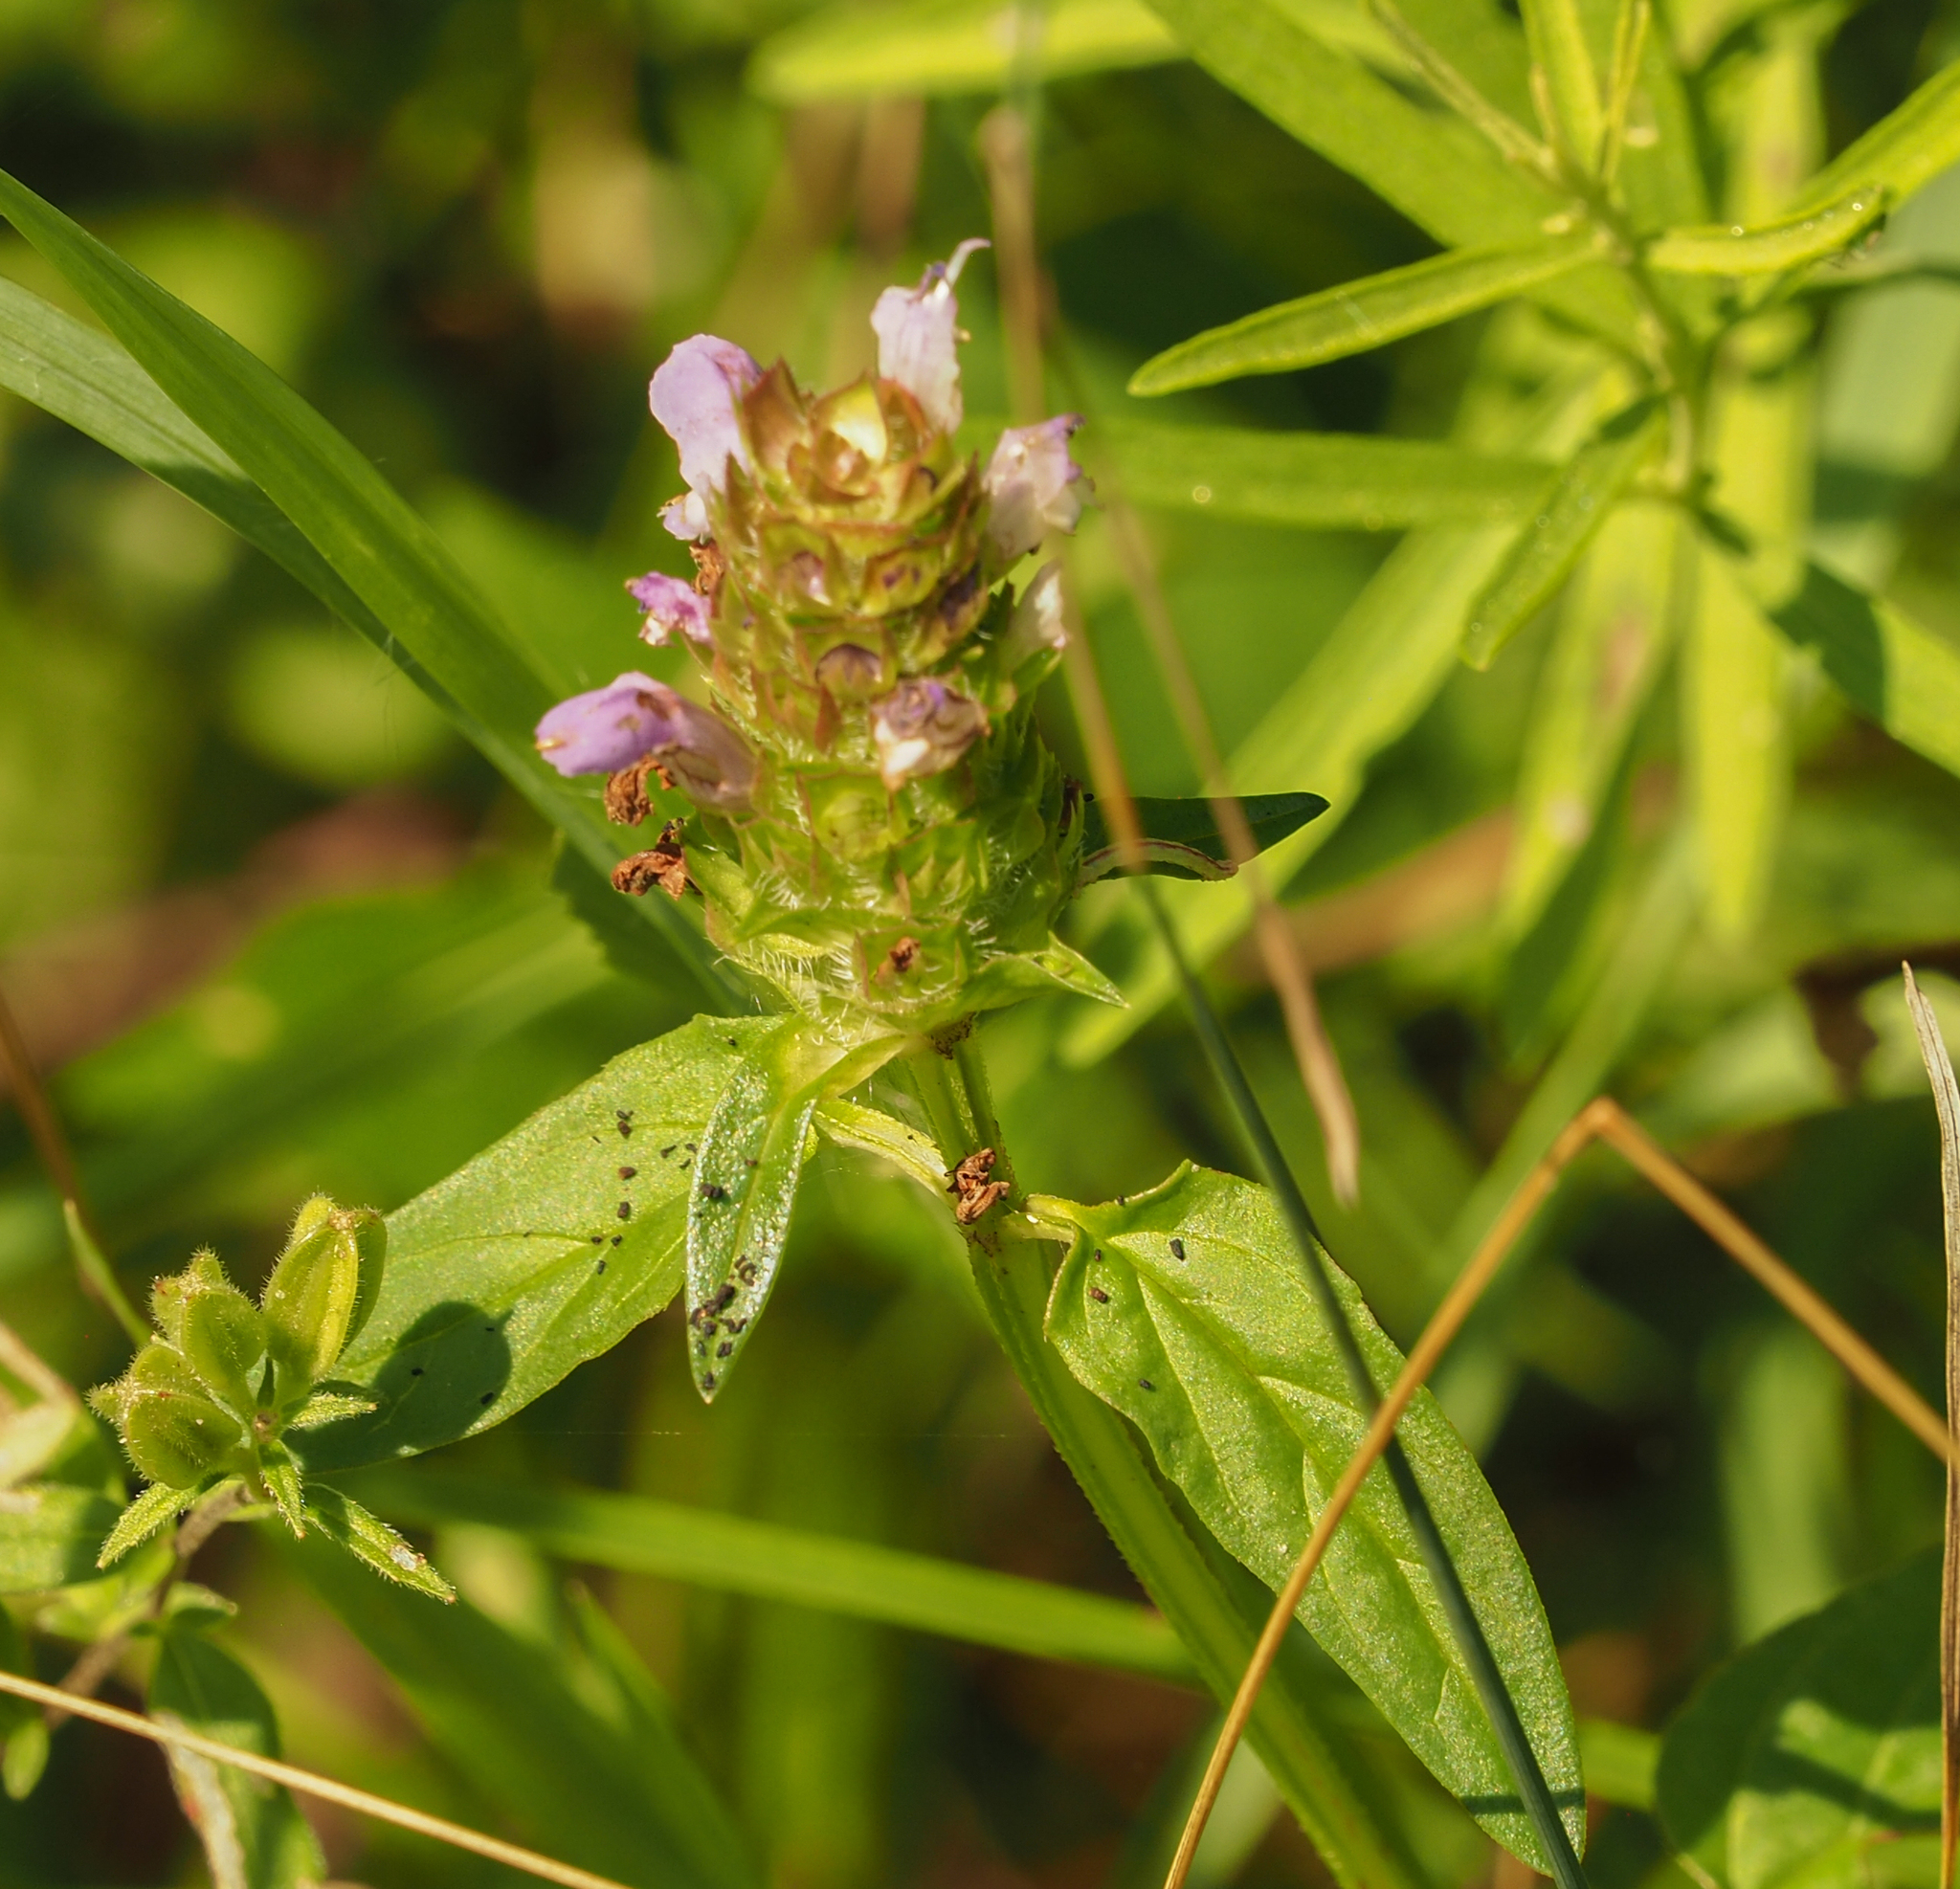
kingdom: Plantae
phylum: Tracheophyta
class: Magnoliopsida
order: Lamiales
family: Lamiaceae
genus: Prunella
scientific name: Prunella vulgaris
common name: Heal-all
